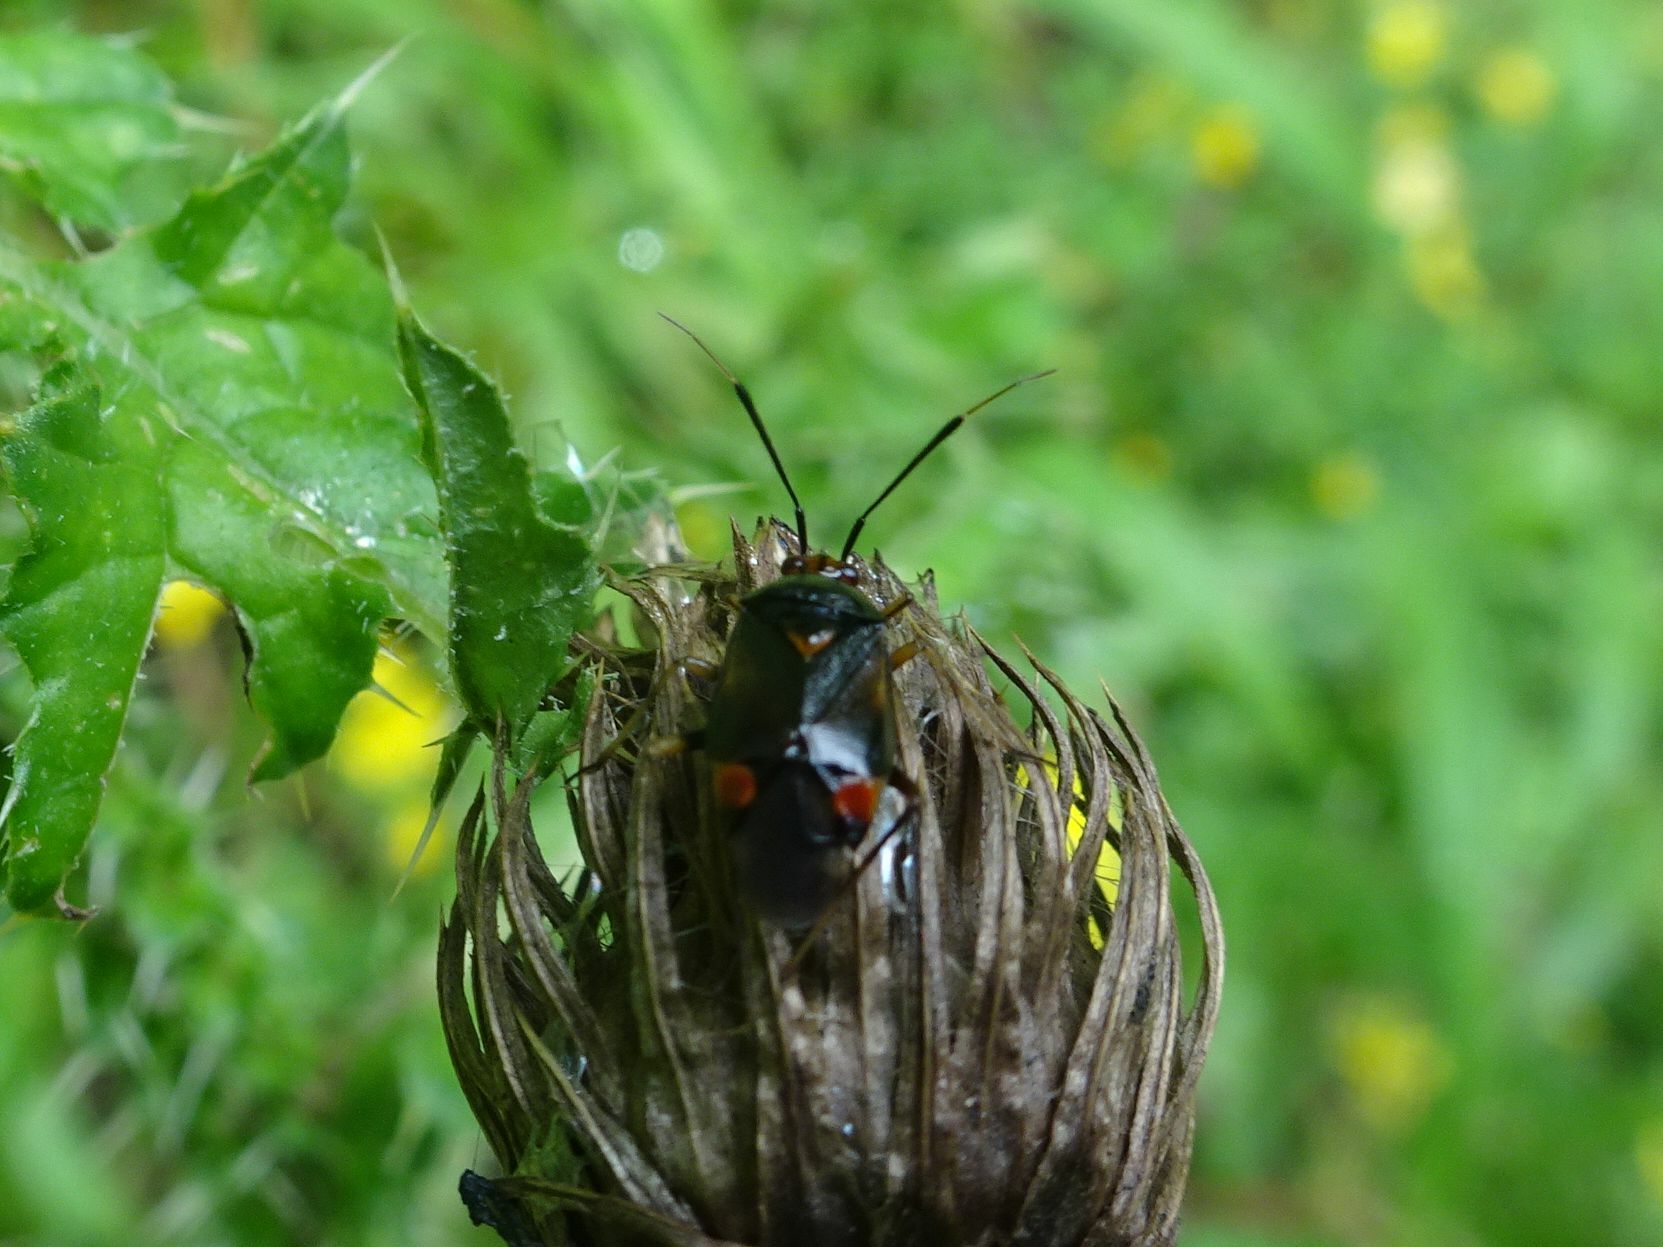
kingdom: Animalia
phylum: Arthropoda
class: Insecta
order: Hemiptera
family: Miridae
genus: Deraeocoris
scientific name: Deraeocoris ruber
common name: Plant bug
